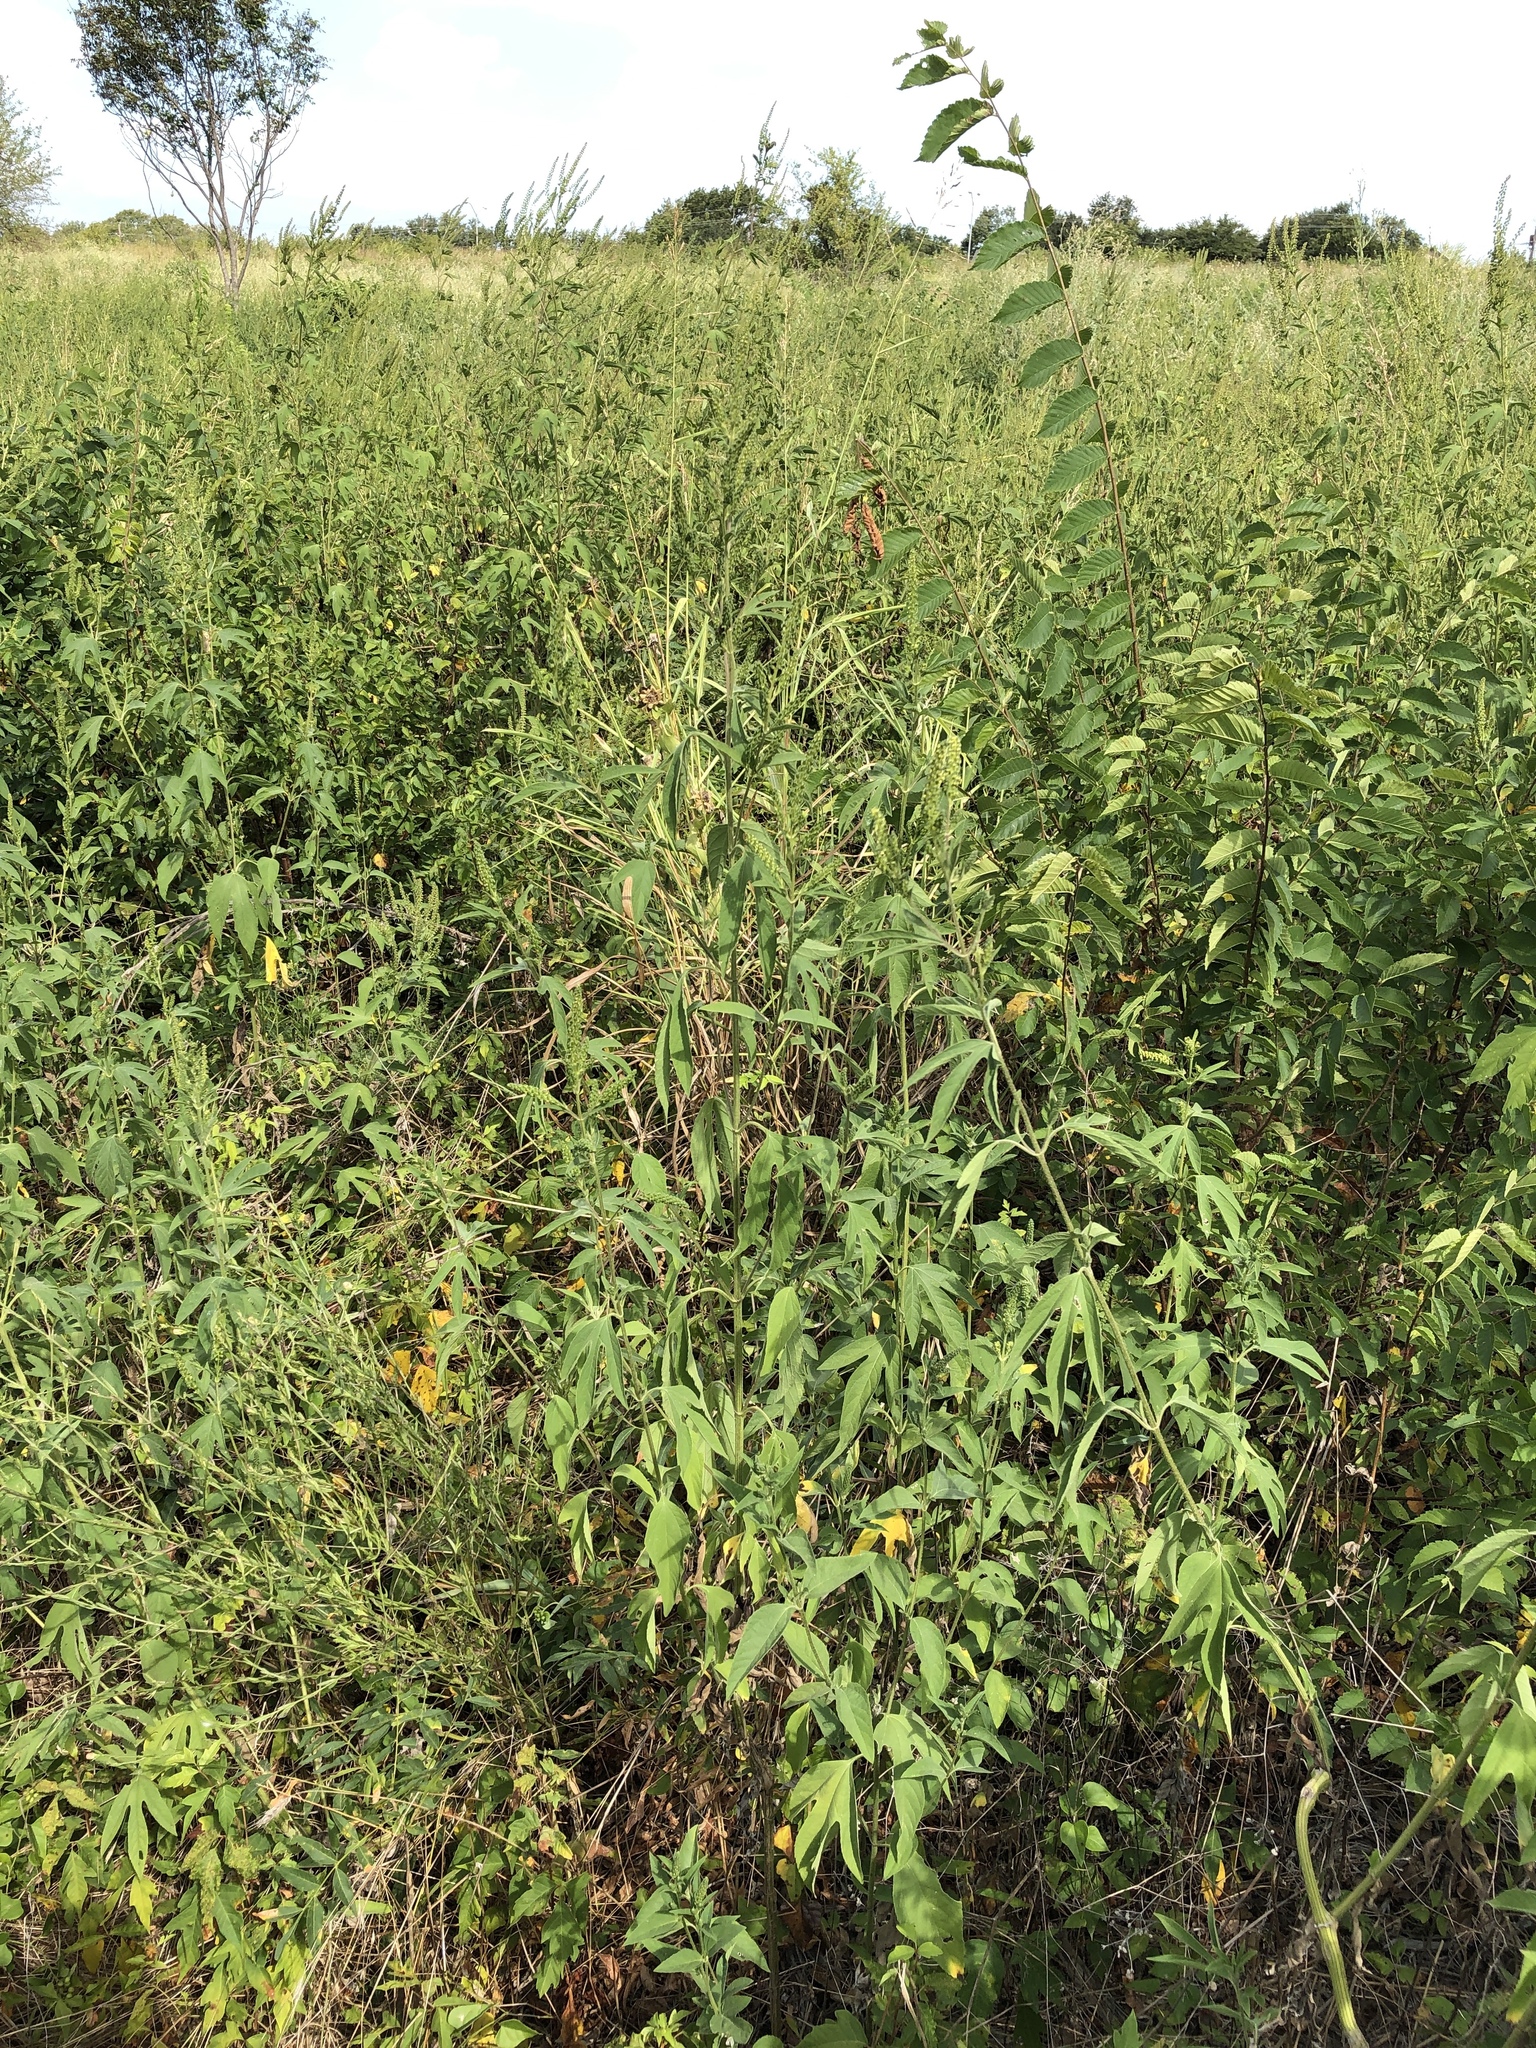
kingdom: Plantae
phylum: Tracheophyta
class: Magnoliopsida
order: Asterales
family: Asteraceae
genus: Ambrosia
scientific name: Ambrosia trifida
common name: Giant ragweed
